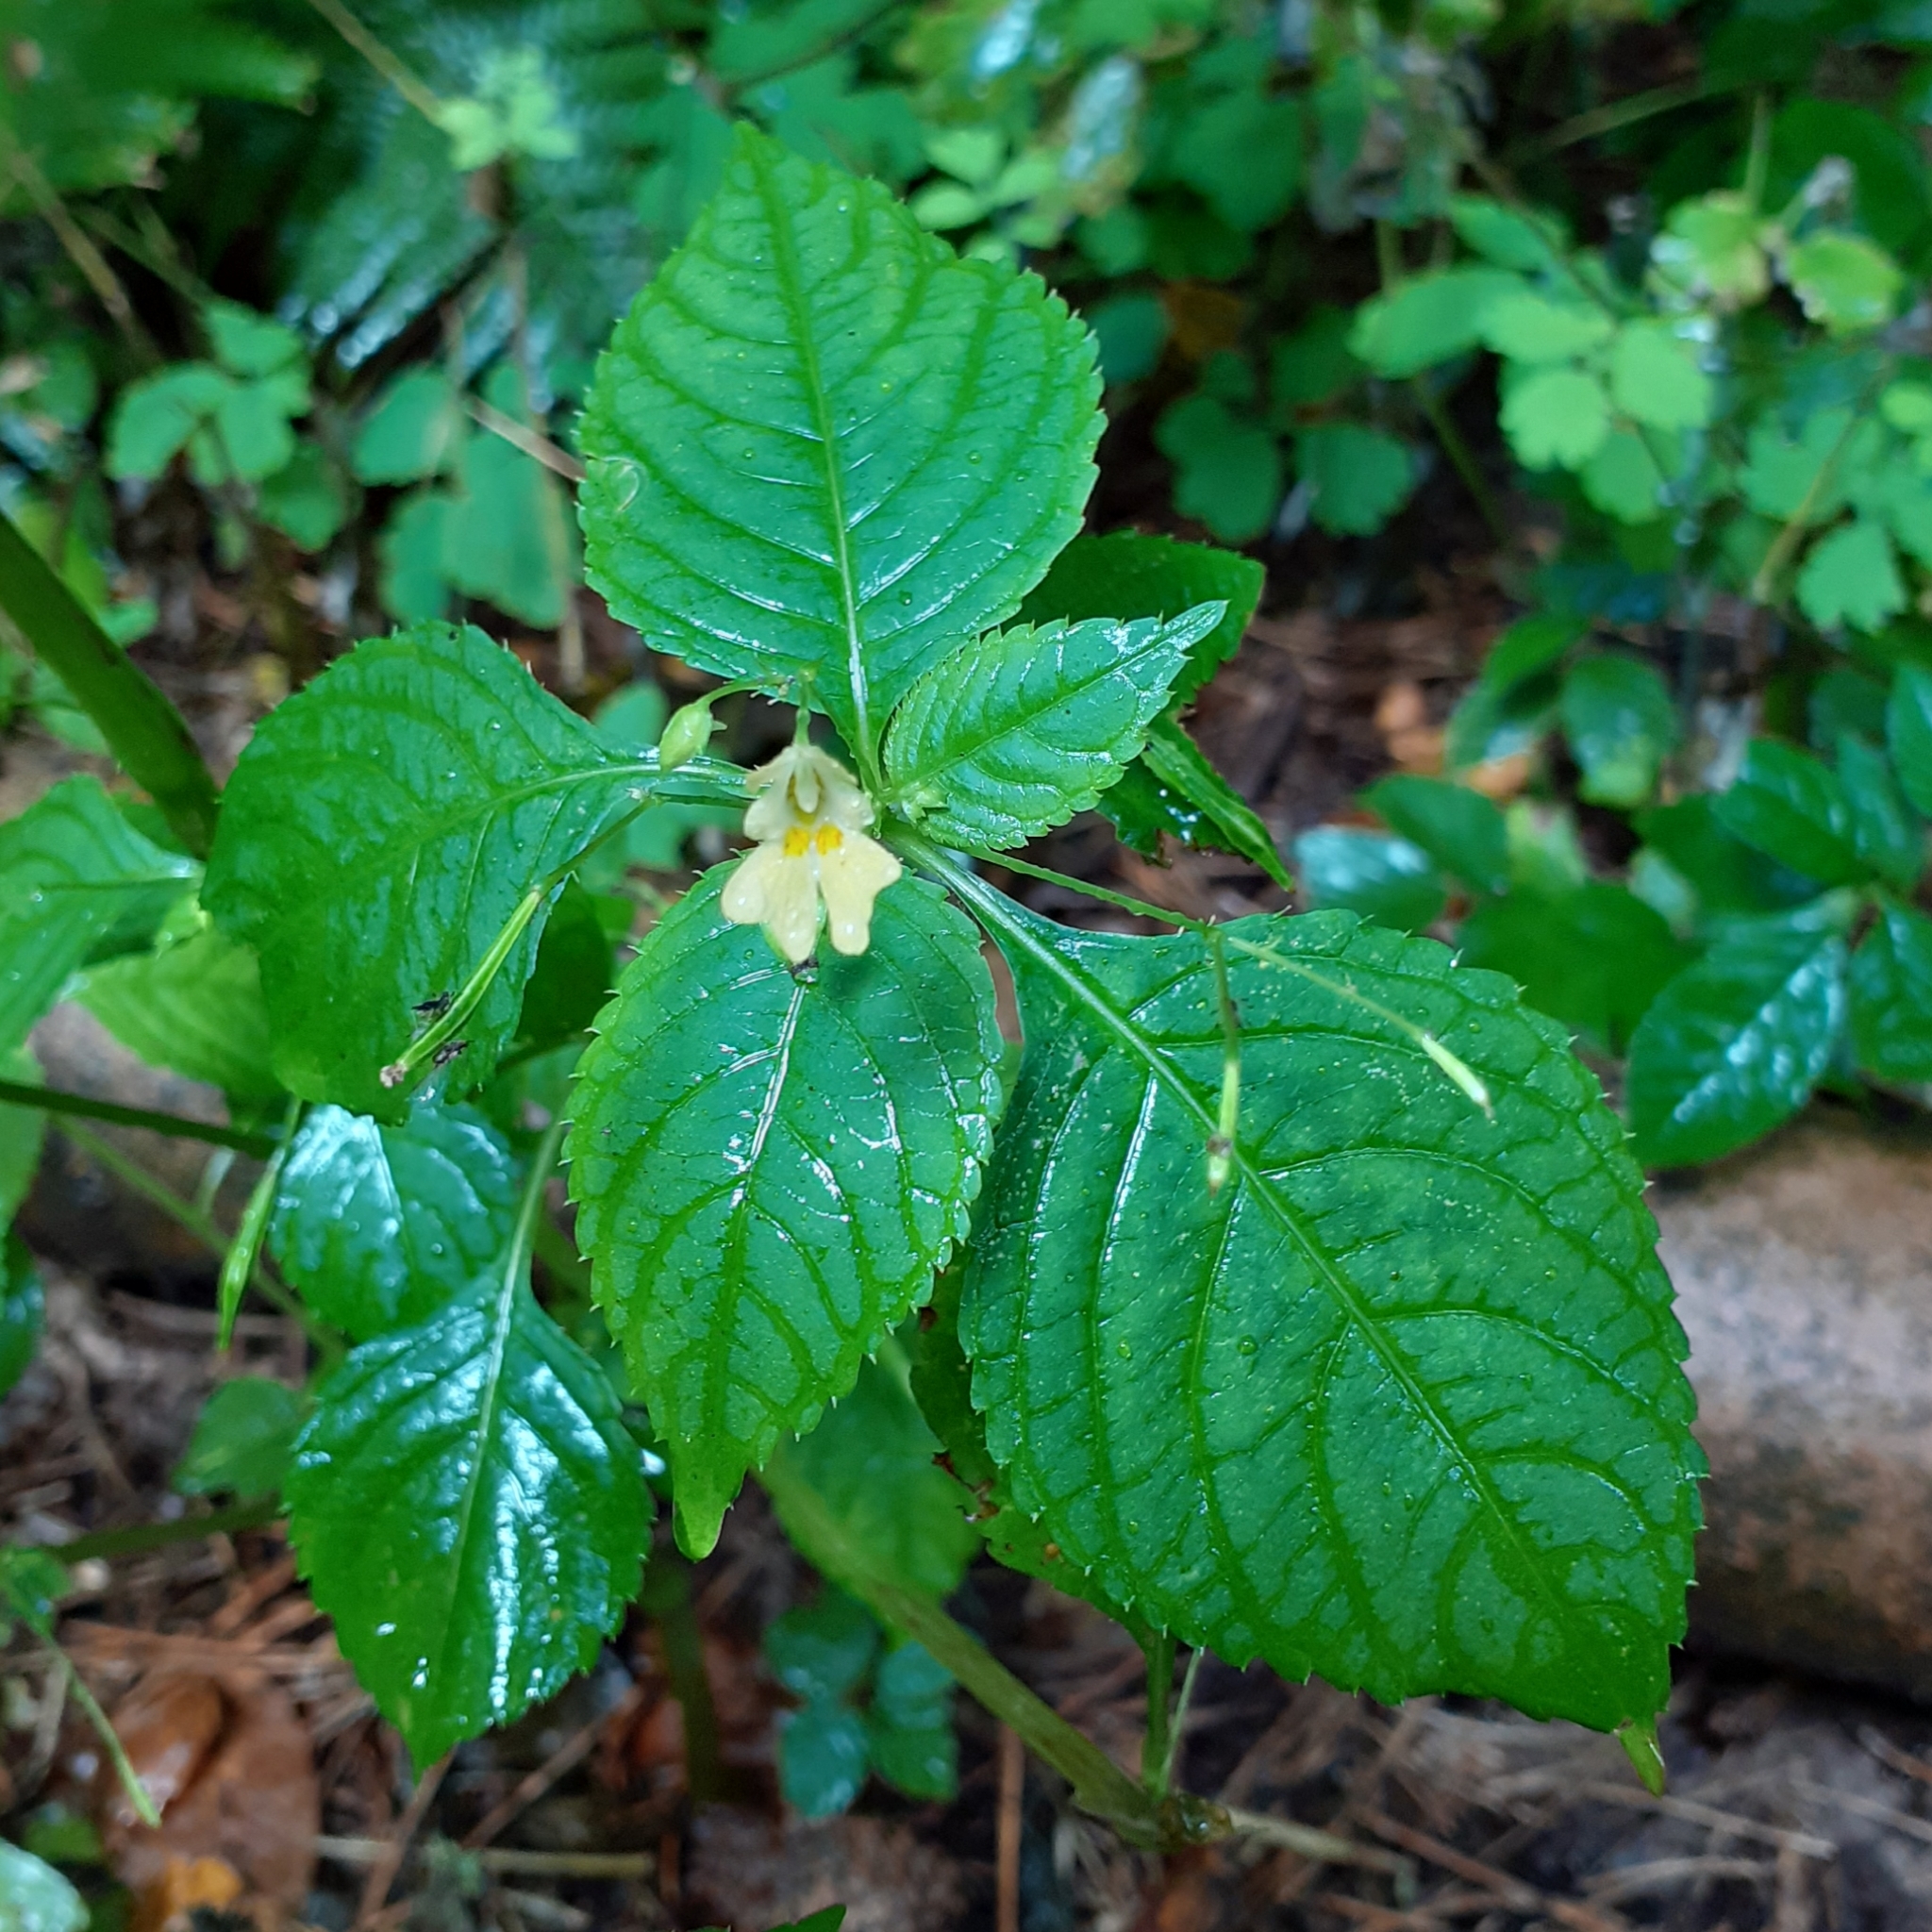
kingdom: Plantae
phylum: Tracheophyta
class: Magnoliopsida
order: Ericales
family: Balsaminaceae
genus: Impatiens
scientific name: Impatiens parviflora
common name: Small balsam
